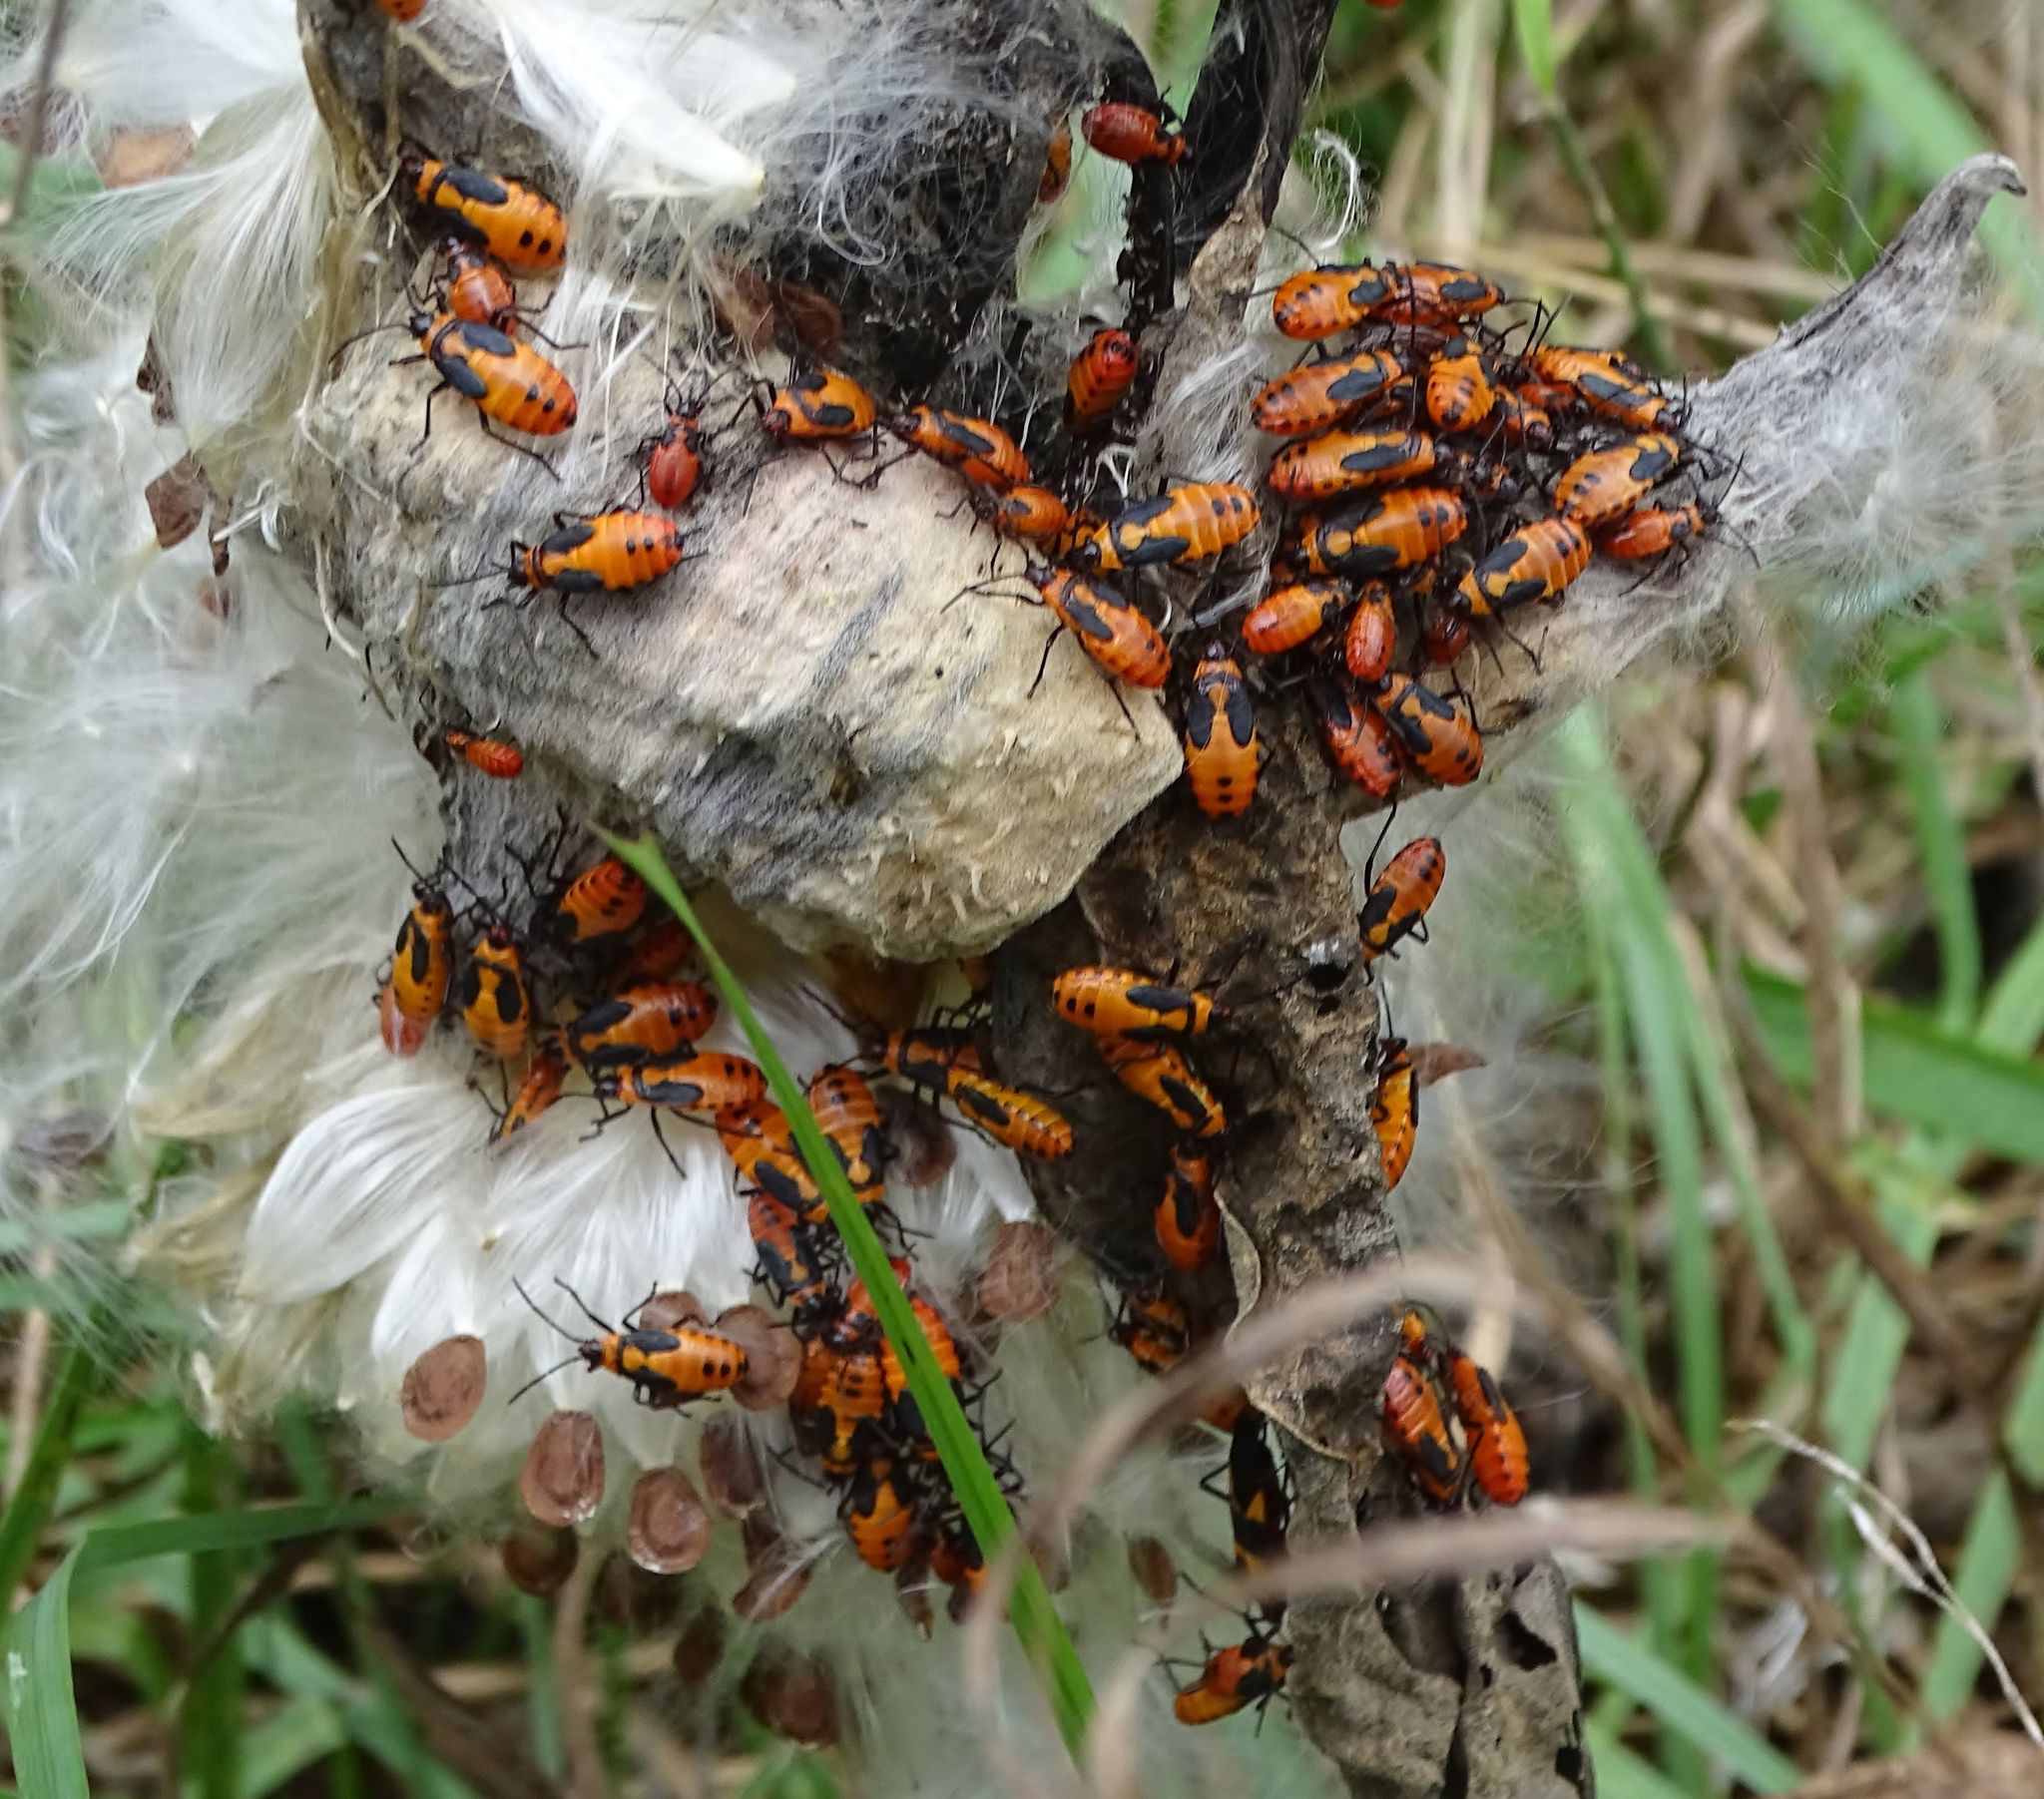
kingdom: Animalia
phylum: Arthropoda
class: Insecta
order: Hemiptera
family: Lygaeidae
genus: Oncopeltus
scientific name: Oncopeltus fasciatus
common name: Large milkweed bug
